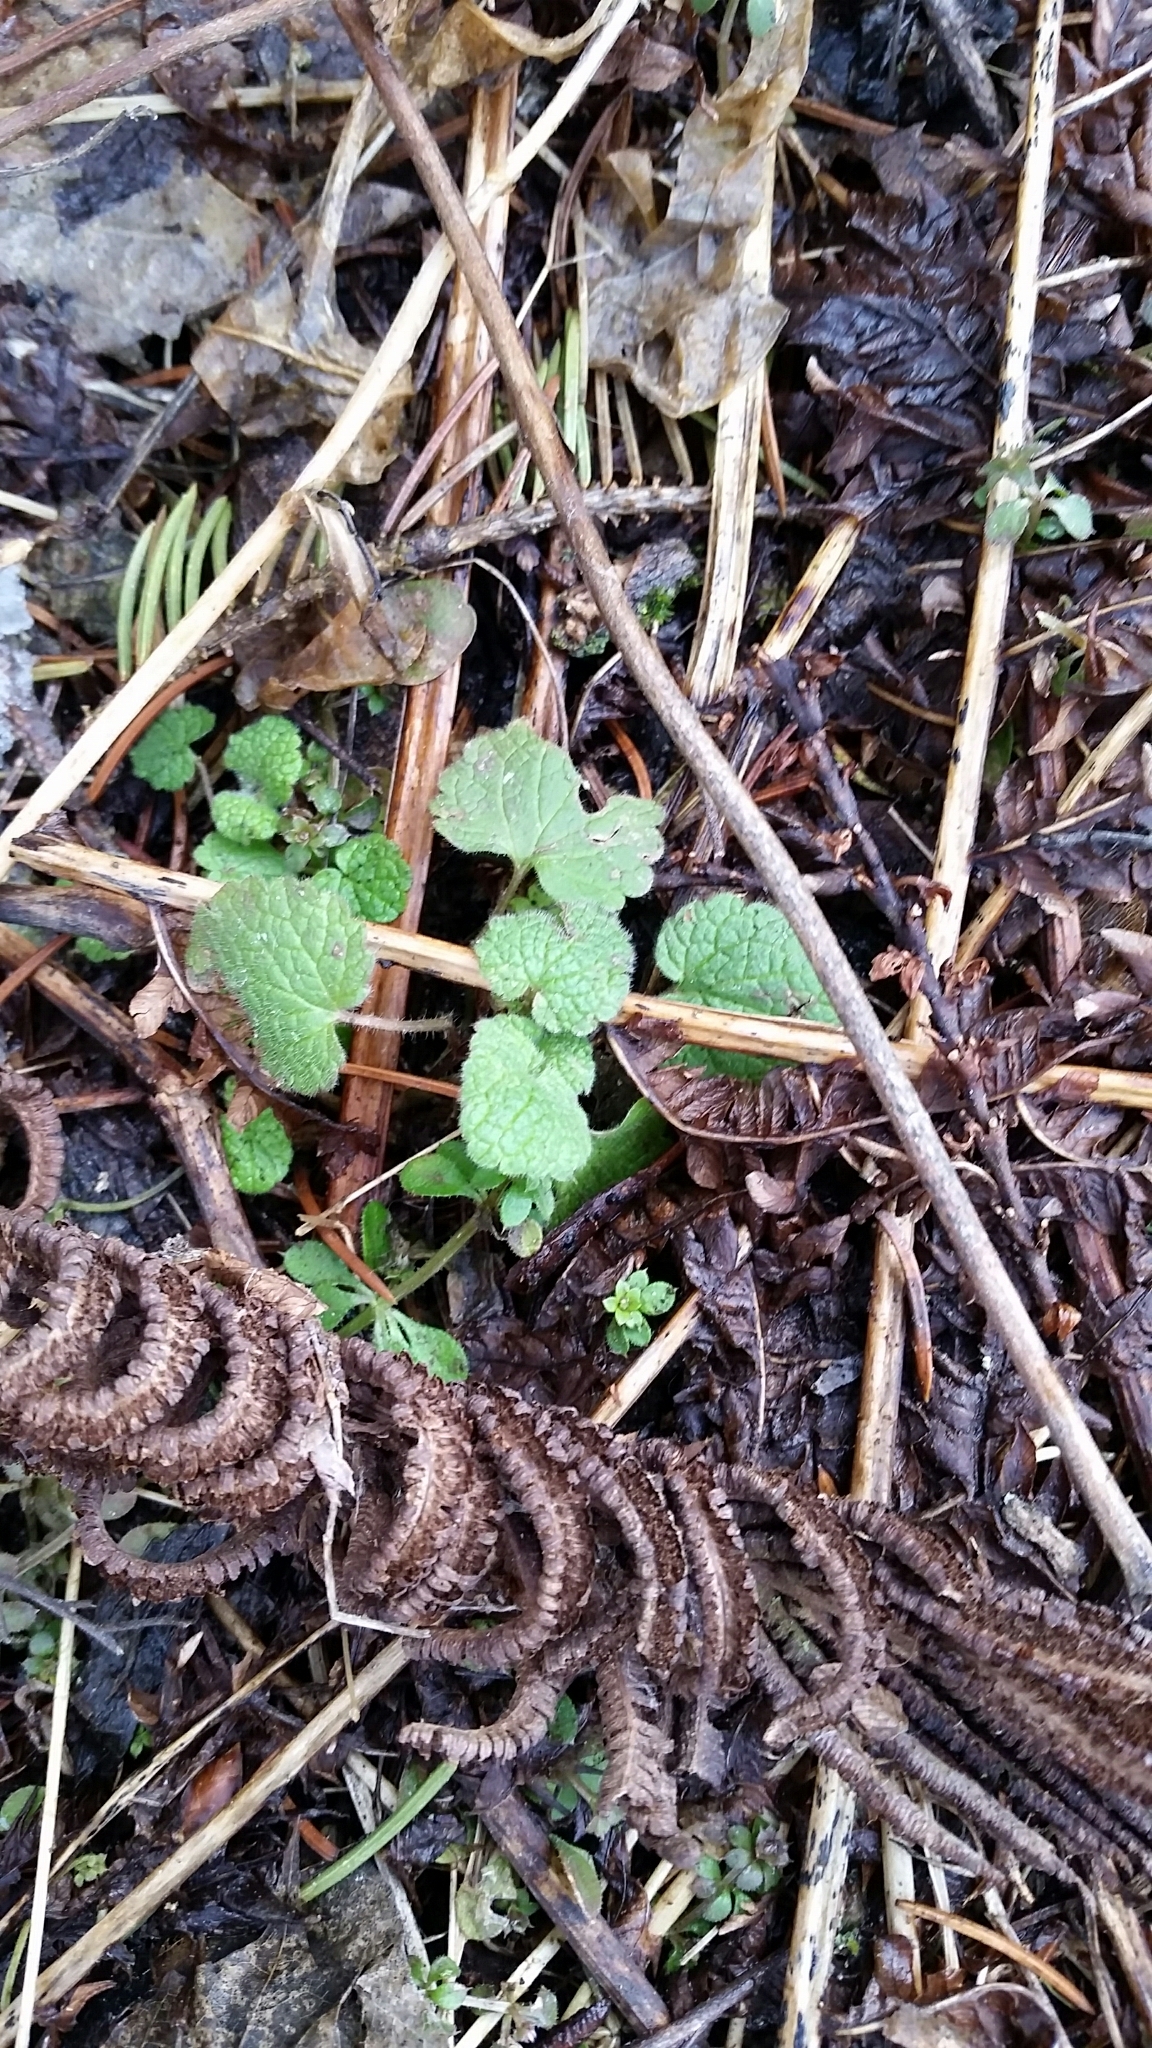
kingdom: Plantae
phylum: Tracheophyta
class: Magnoliopsida
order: Lamiales
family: Lamiaceae
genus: Lamium
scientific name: Lamium purpureum
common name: Red dead-nettle
